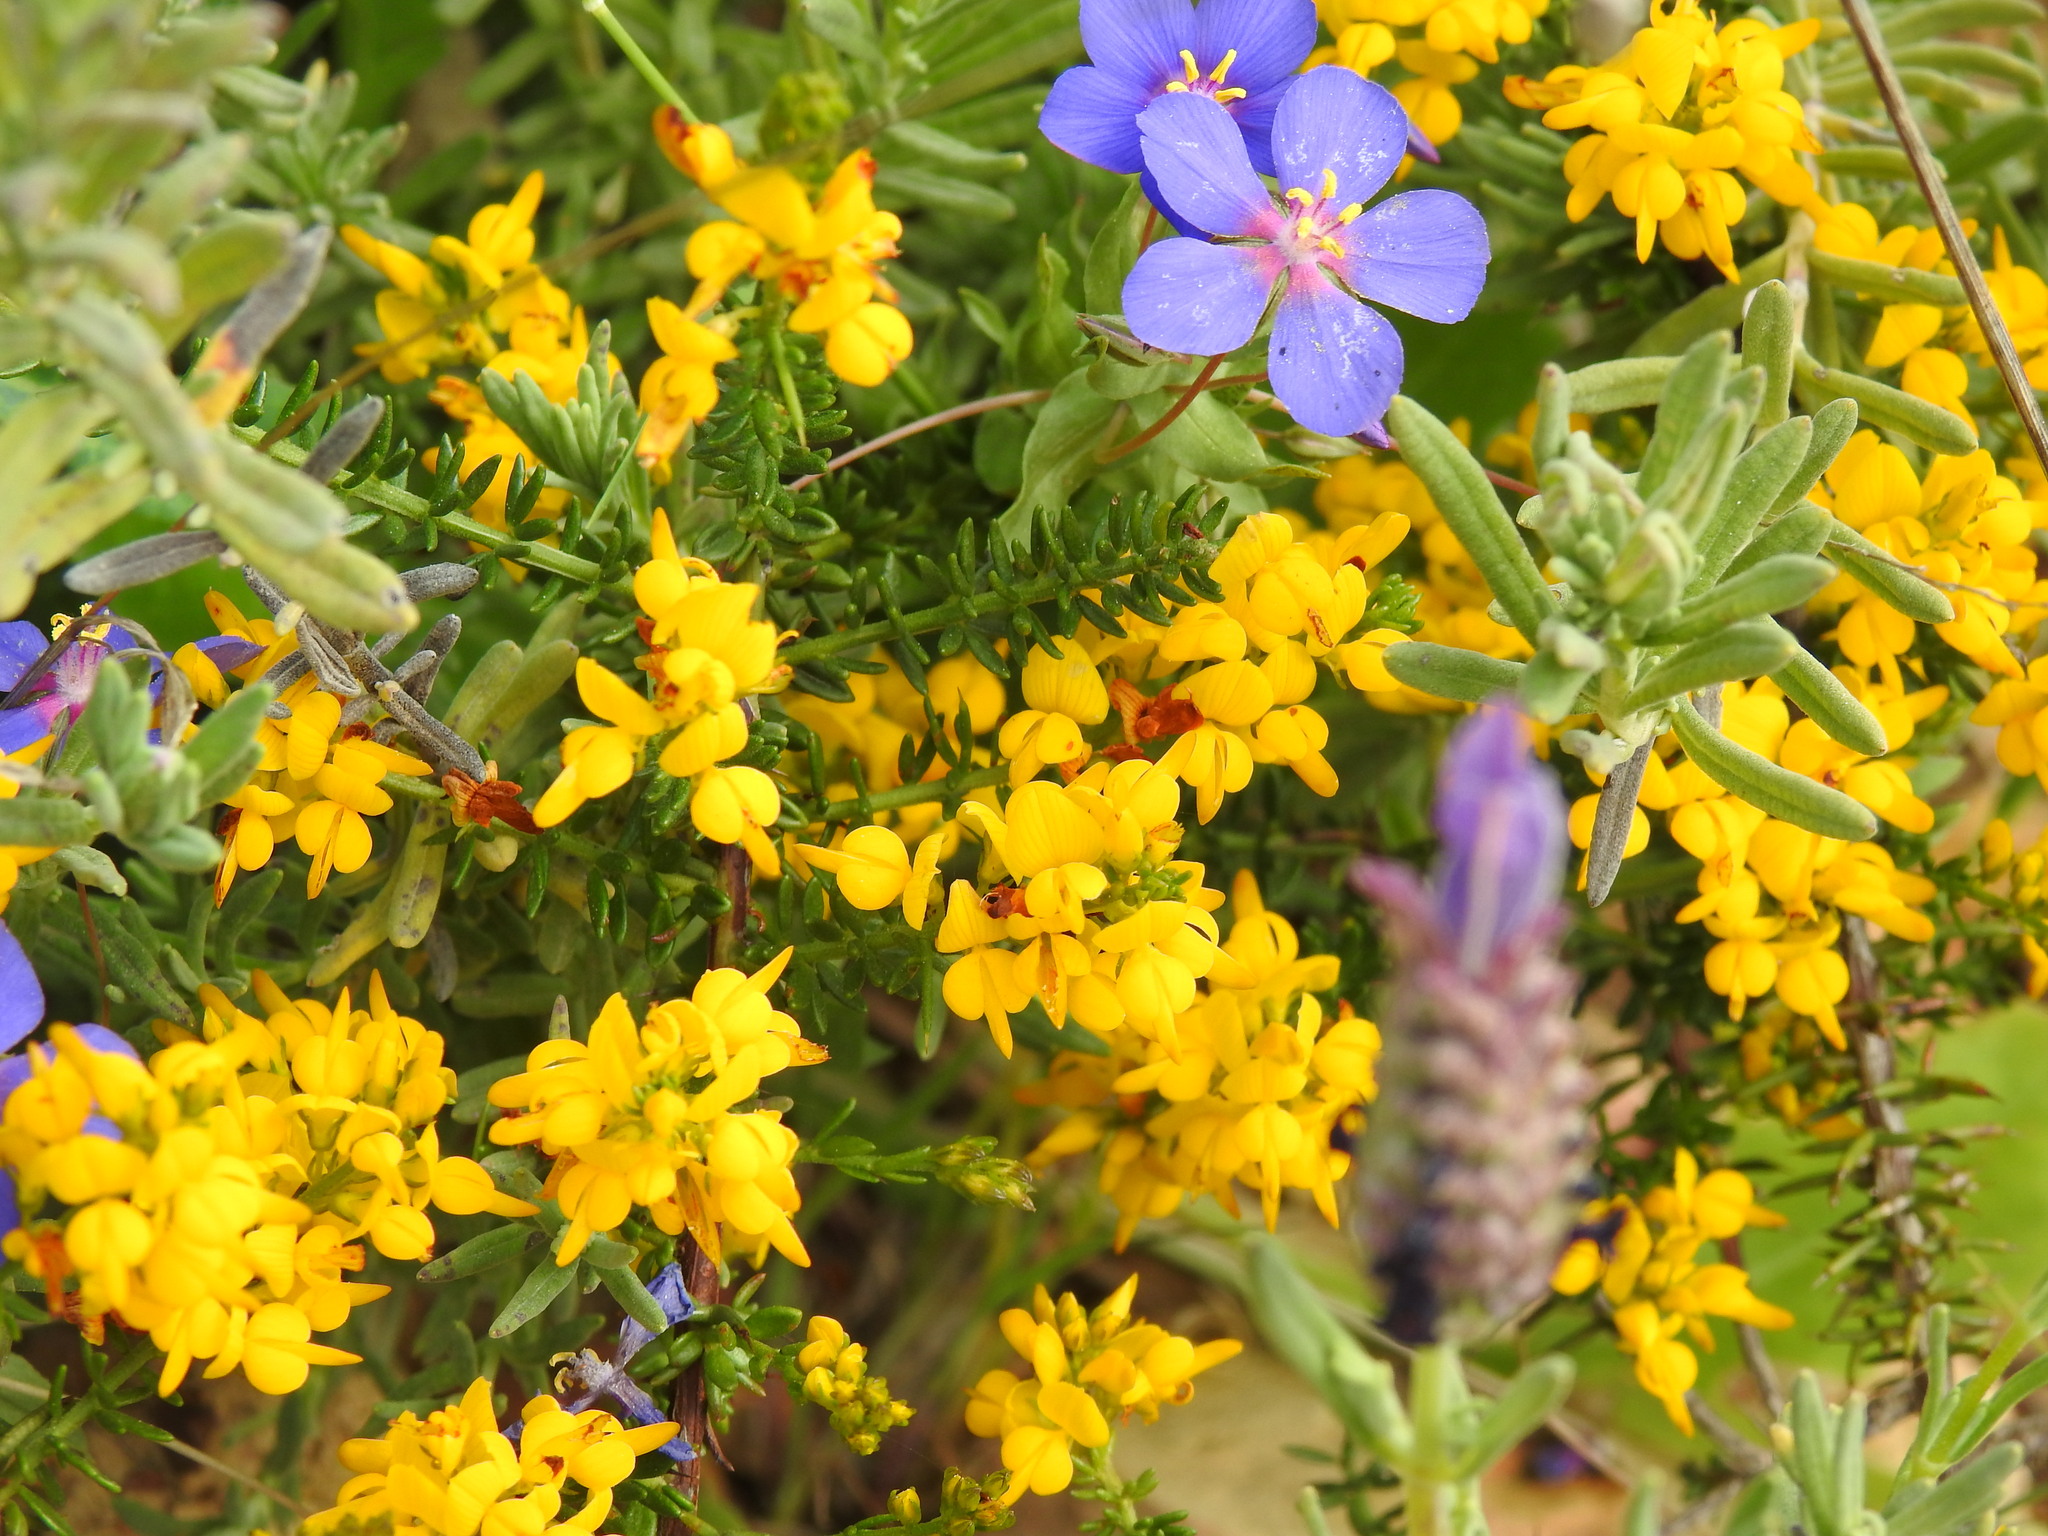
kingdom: Plantae
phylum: Tracheophyta
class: Magnoliopsida
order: Fabales
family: Fabaceae
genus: Genista
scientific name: Genista triacanthos
